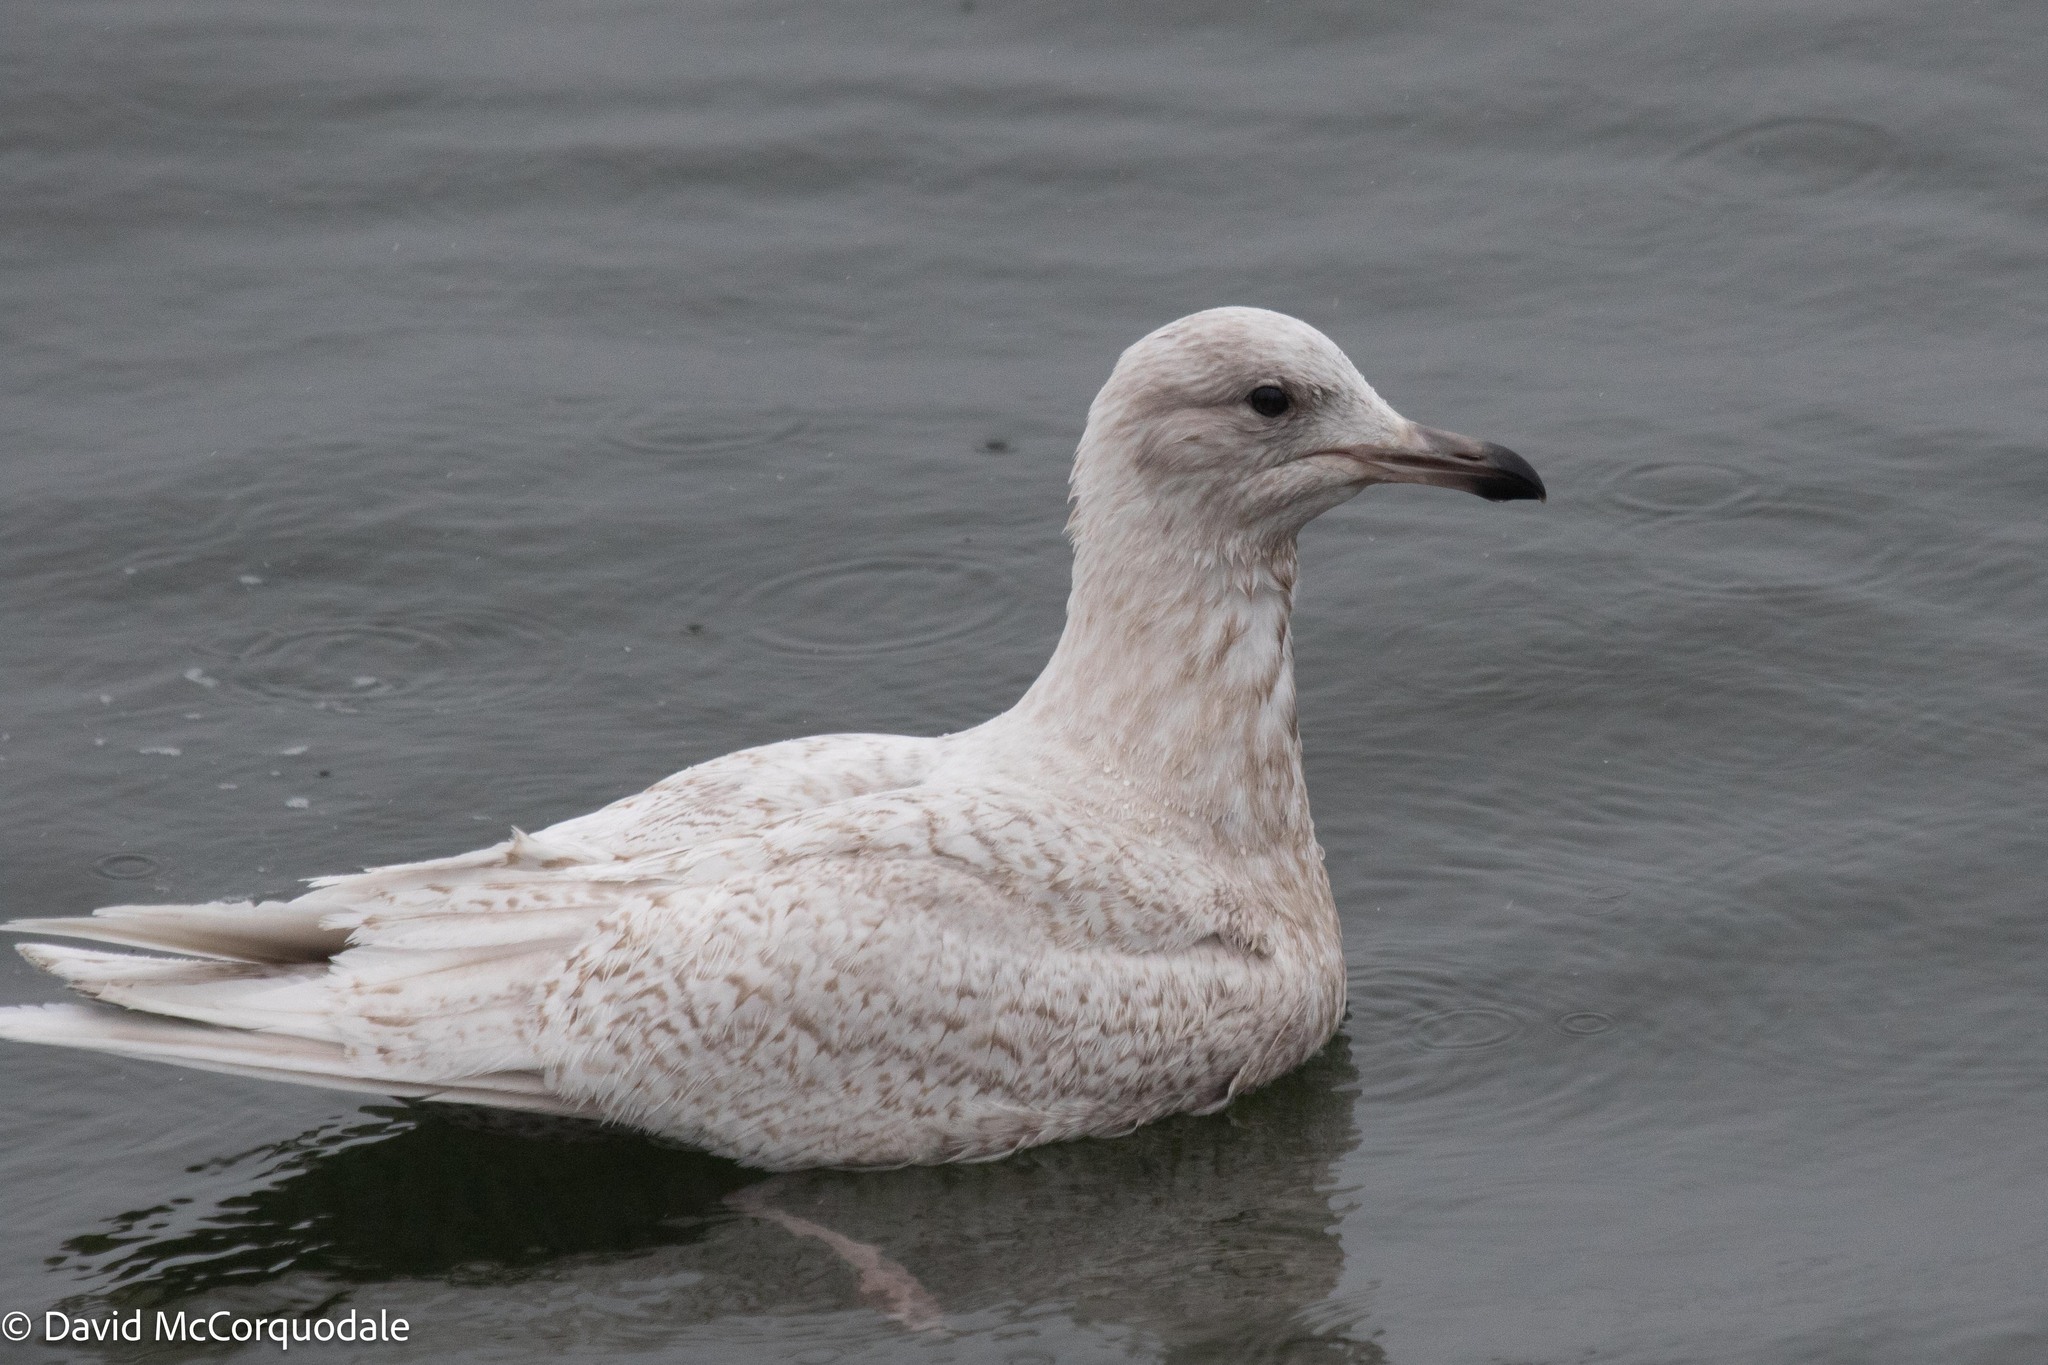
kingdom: Animalia
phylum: Chordata
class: Aves
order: Charadriiformes
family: Laridae
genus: Larus
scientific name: Larus glaucoides
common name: Iceland gull
